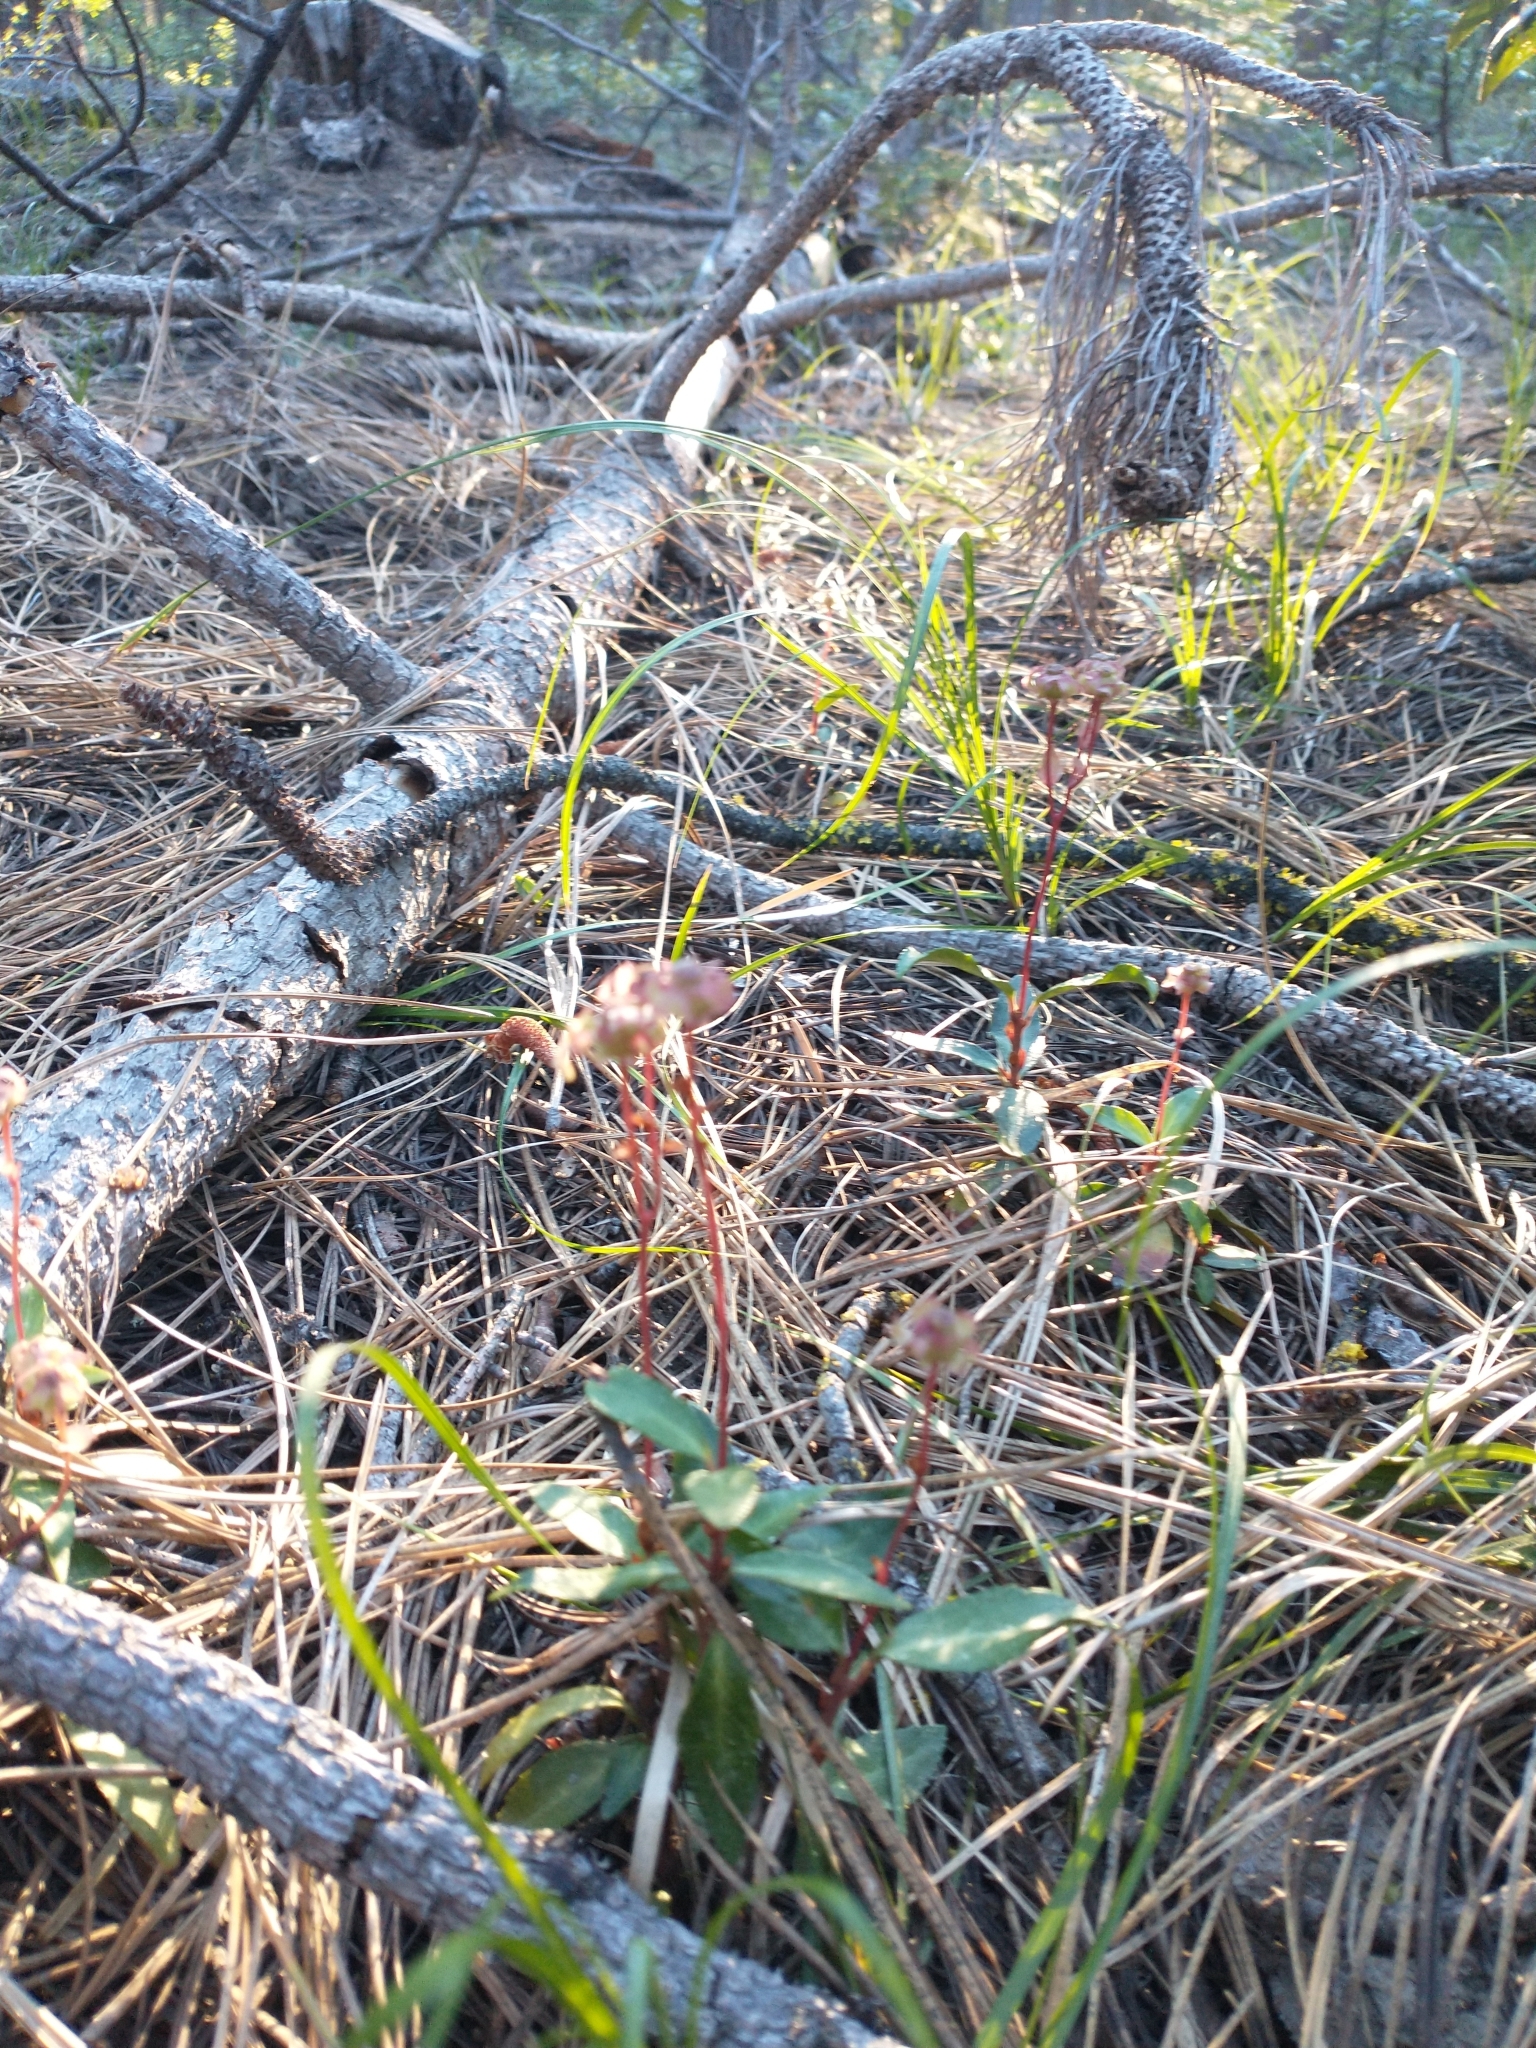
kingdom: Plantae
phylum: Tracheophyta
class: Magnoliopsida
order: Ericales
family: Ericaceae
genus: Chimaphila
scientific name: Chimaphila menziesii
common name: Menzies' pipsissewa
